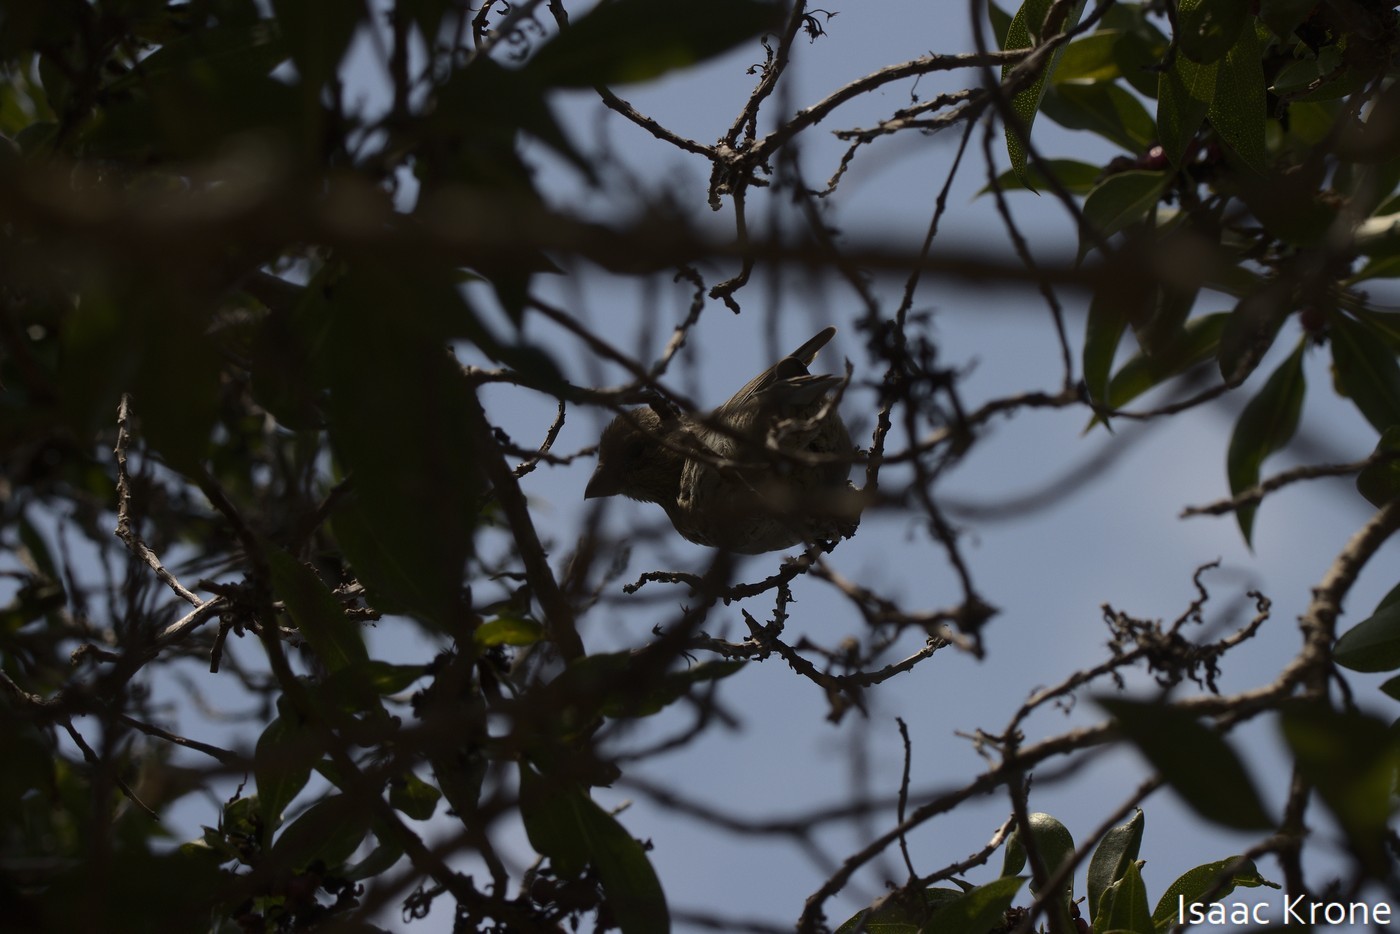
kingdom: Animalia
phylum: Chordata
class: Aves
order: Passeriformes
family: Fringillidae
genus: Haemorhous
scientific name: Haemorhous mexicanus
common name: House finch
